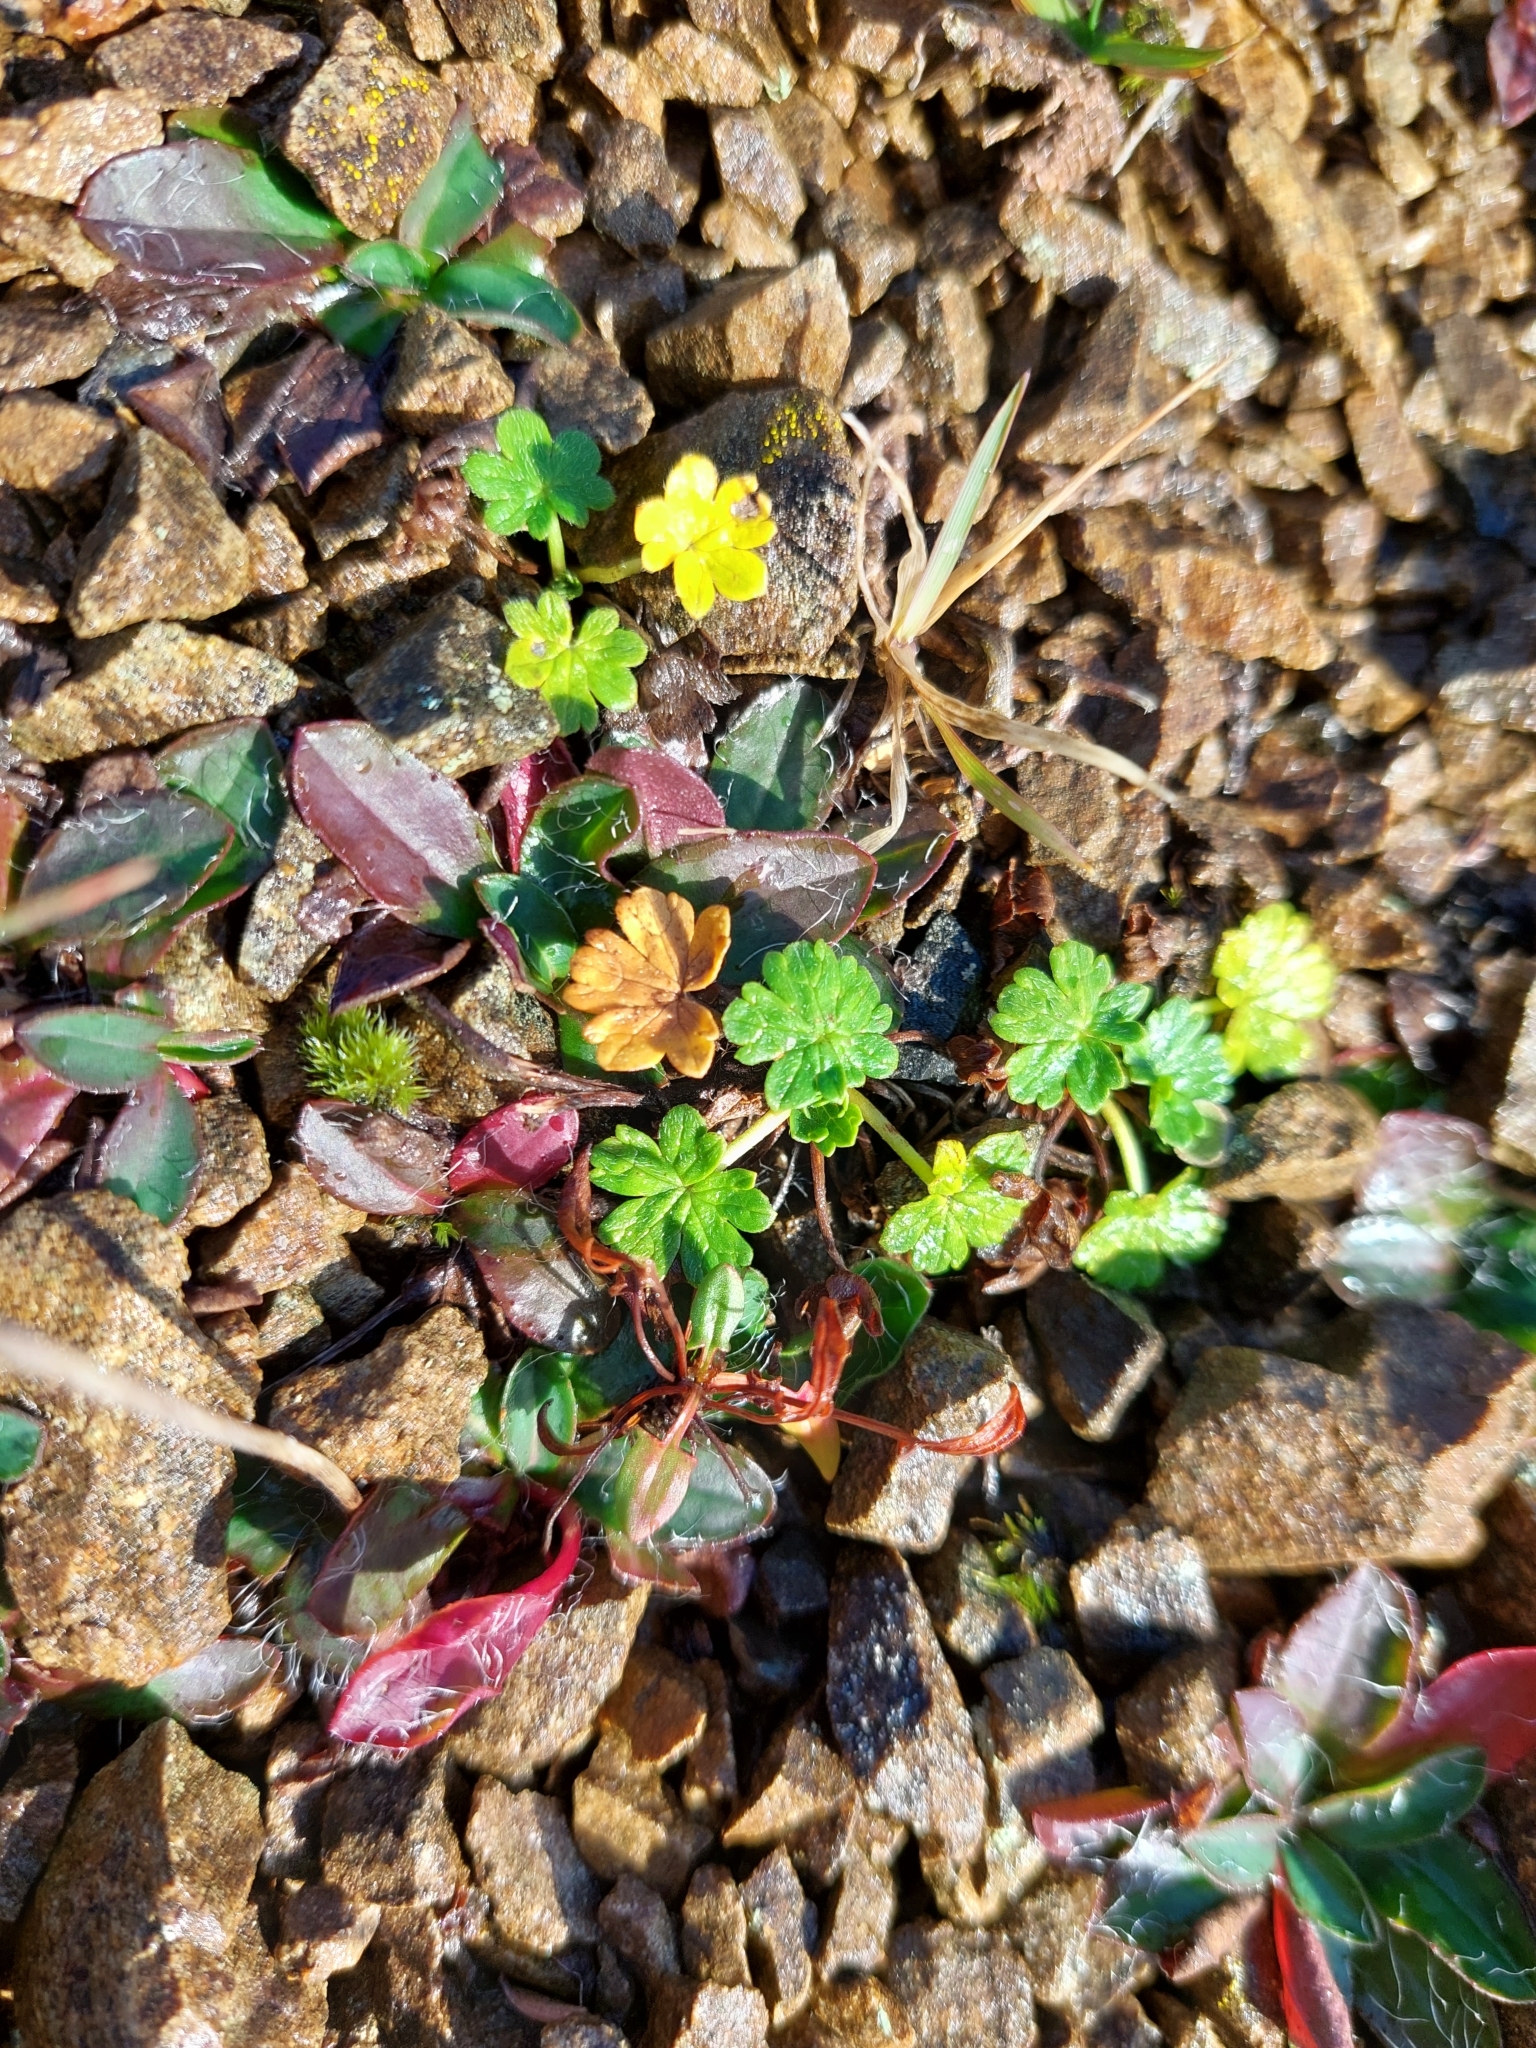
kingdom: Plantae
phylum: Tracheophyta
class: Magnoliopsida
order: Geraniales
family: Geraniaceae
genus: Geranium
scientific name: Geranium brevicaule
